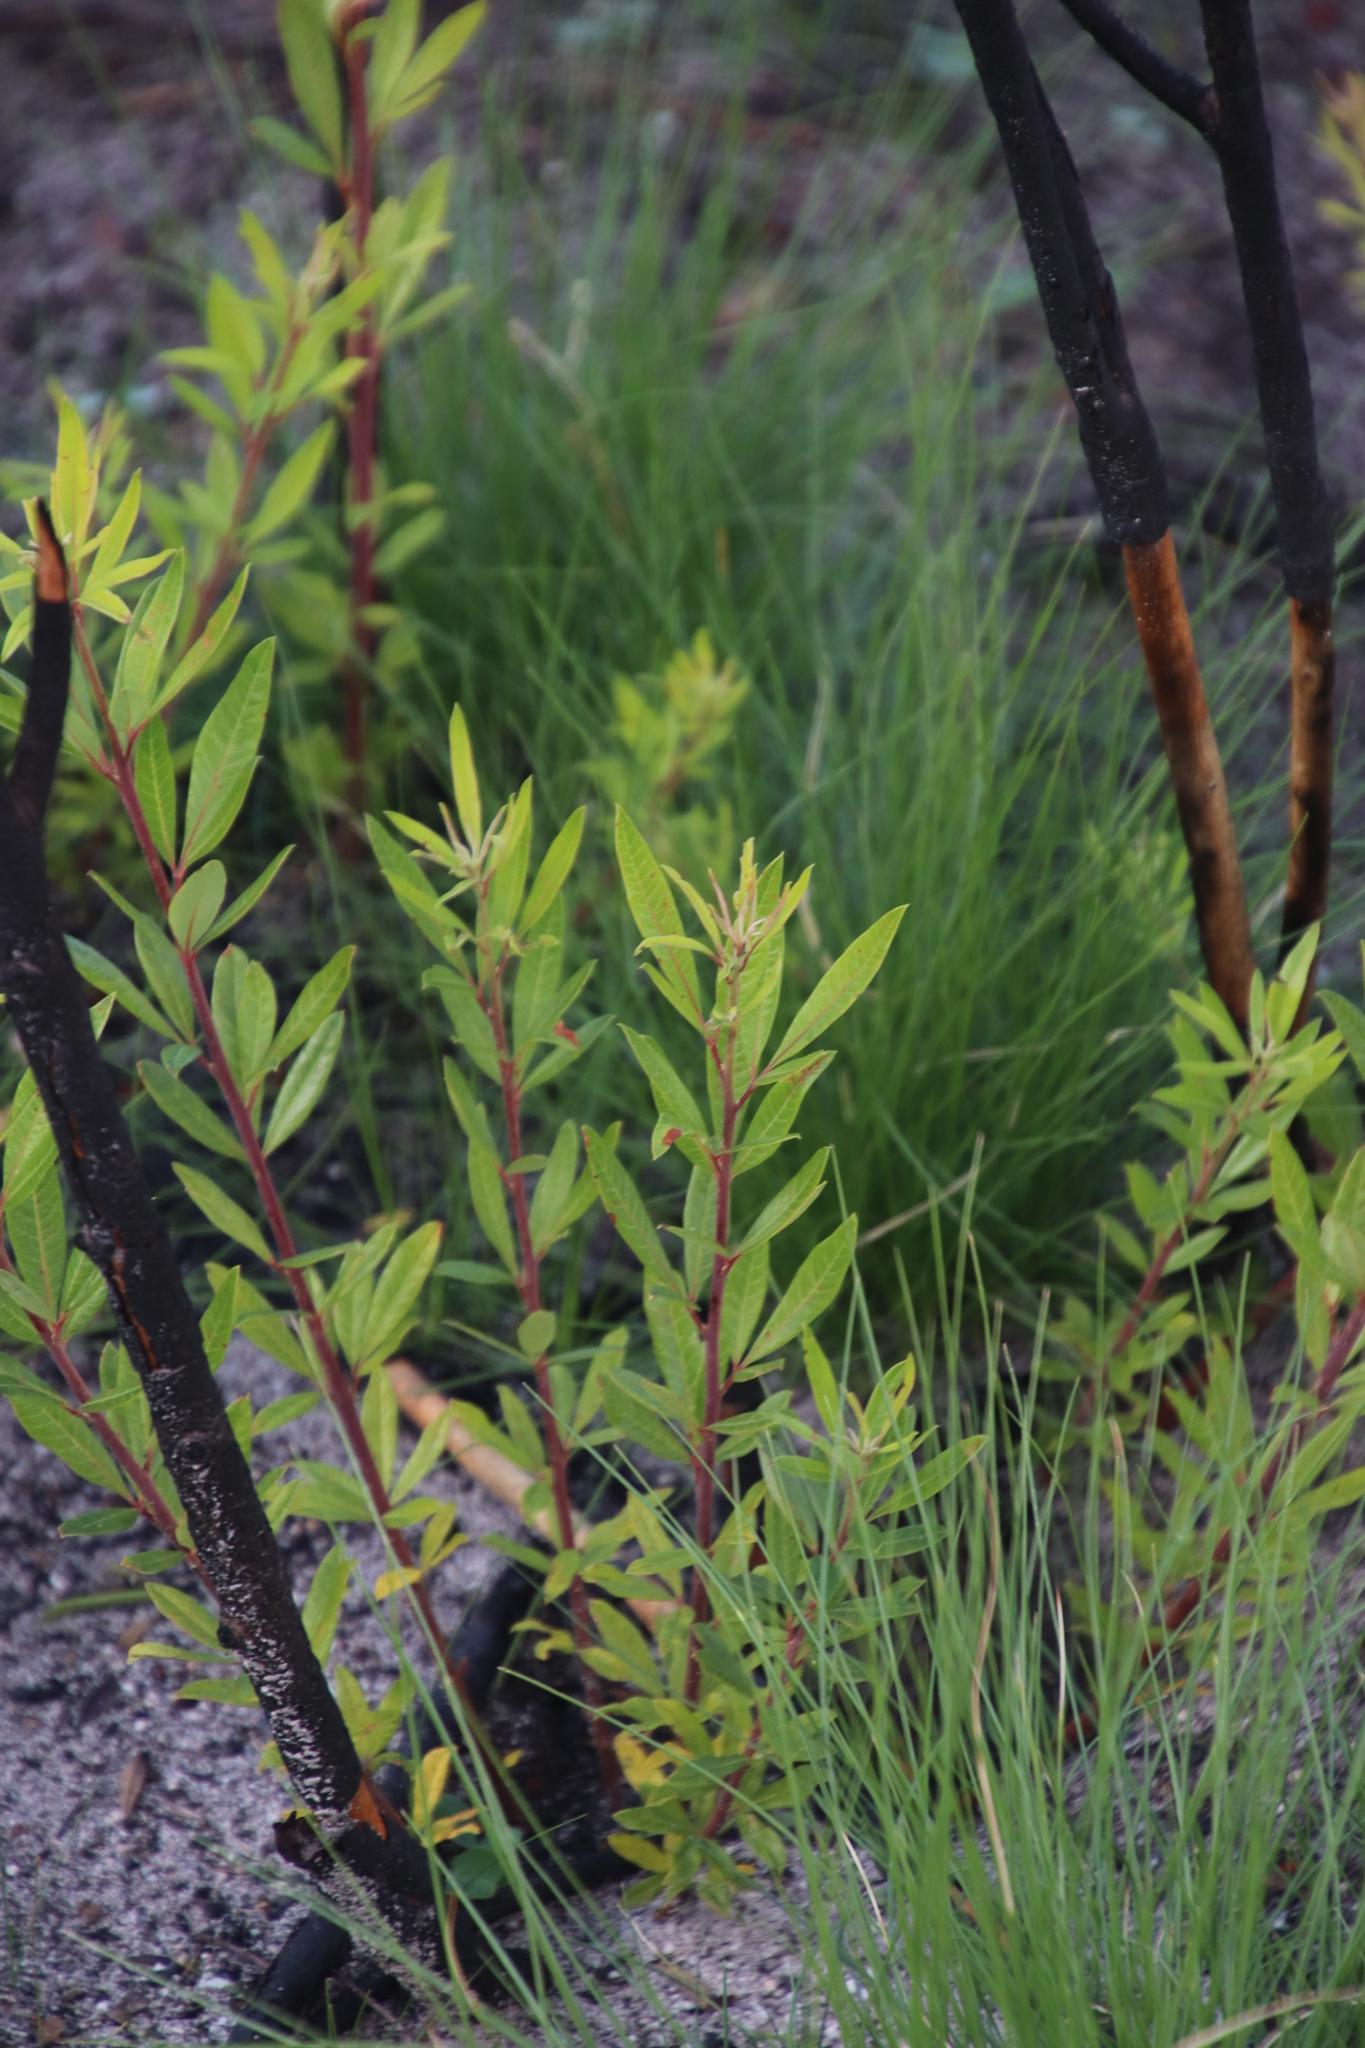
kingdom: Plantae
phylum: Tracheophyta
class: Magnoliopsida
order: Sapindales
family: Anacardiaceae
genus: Searsia
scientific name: Searsia angustifolia
